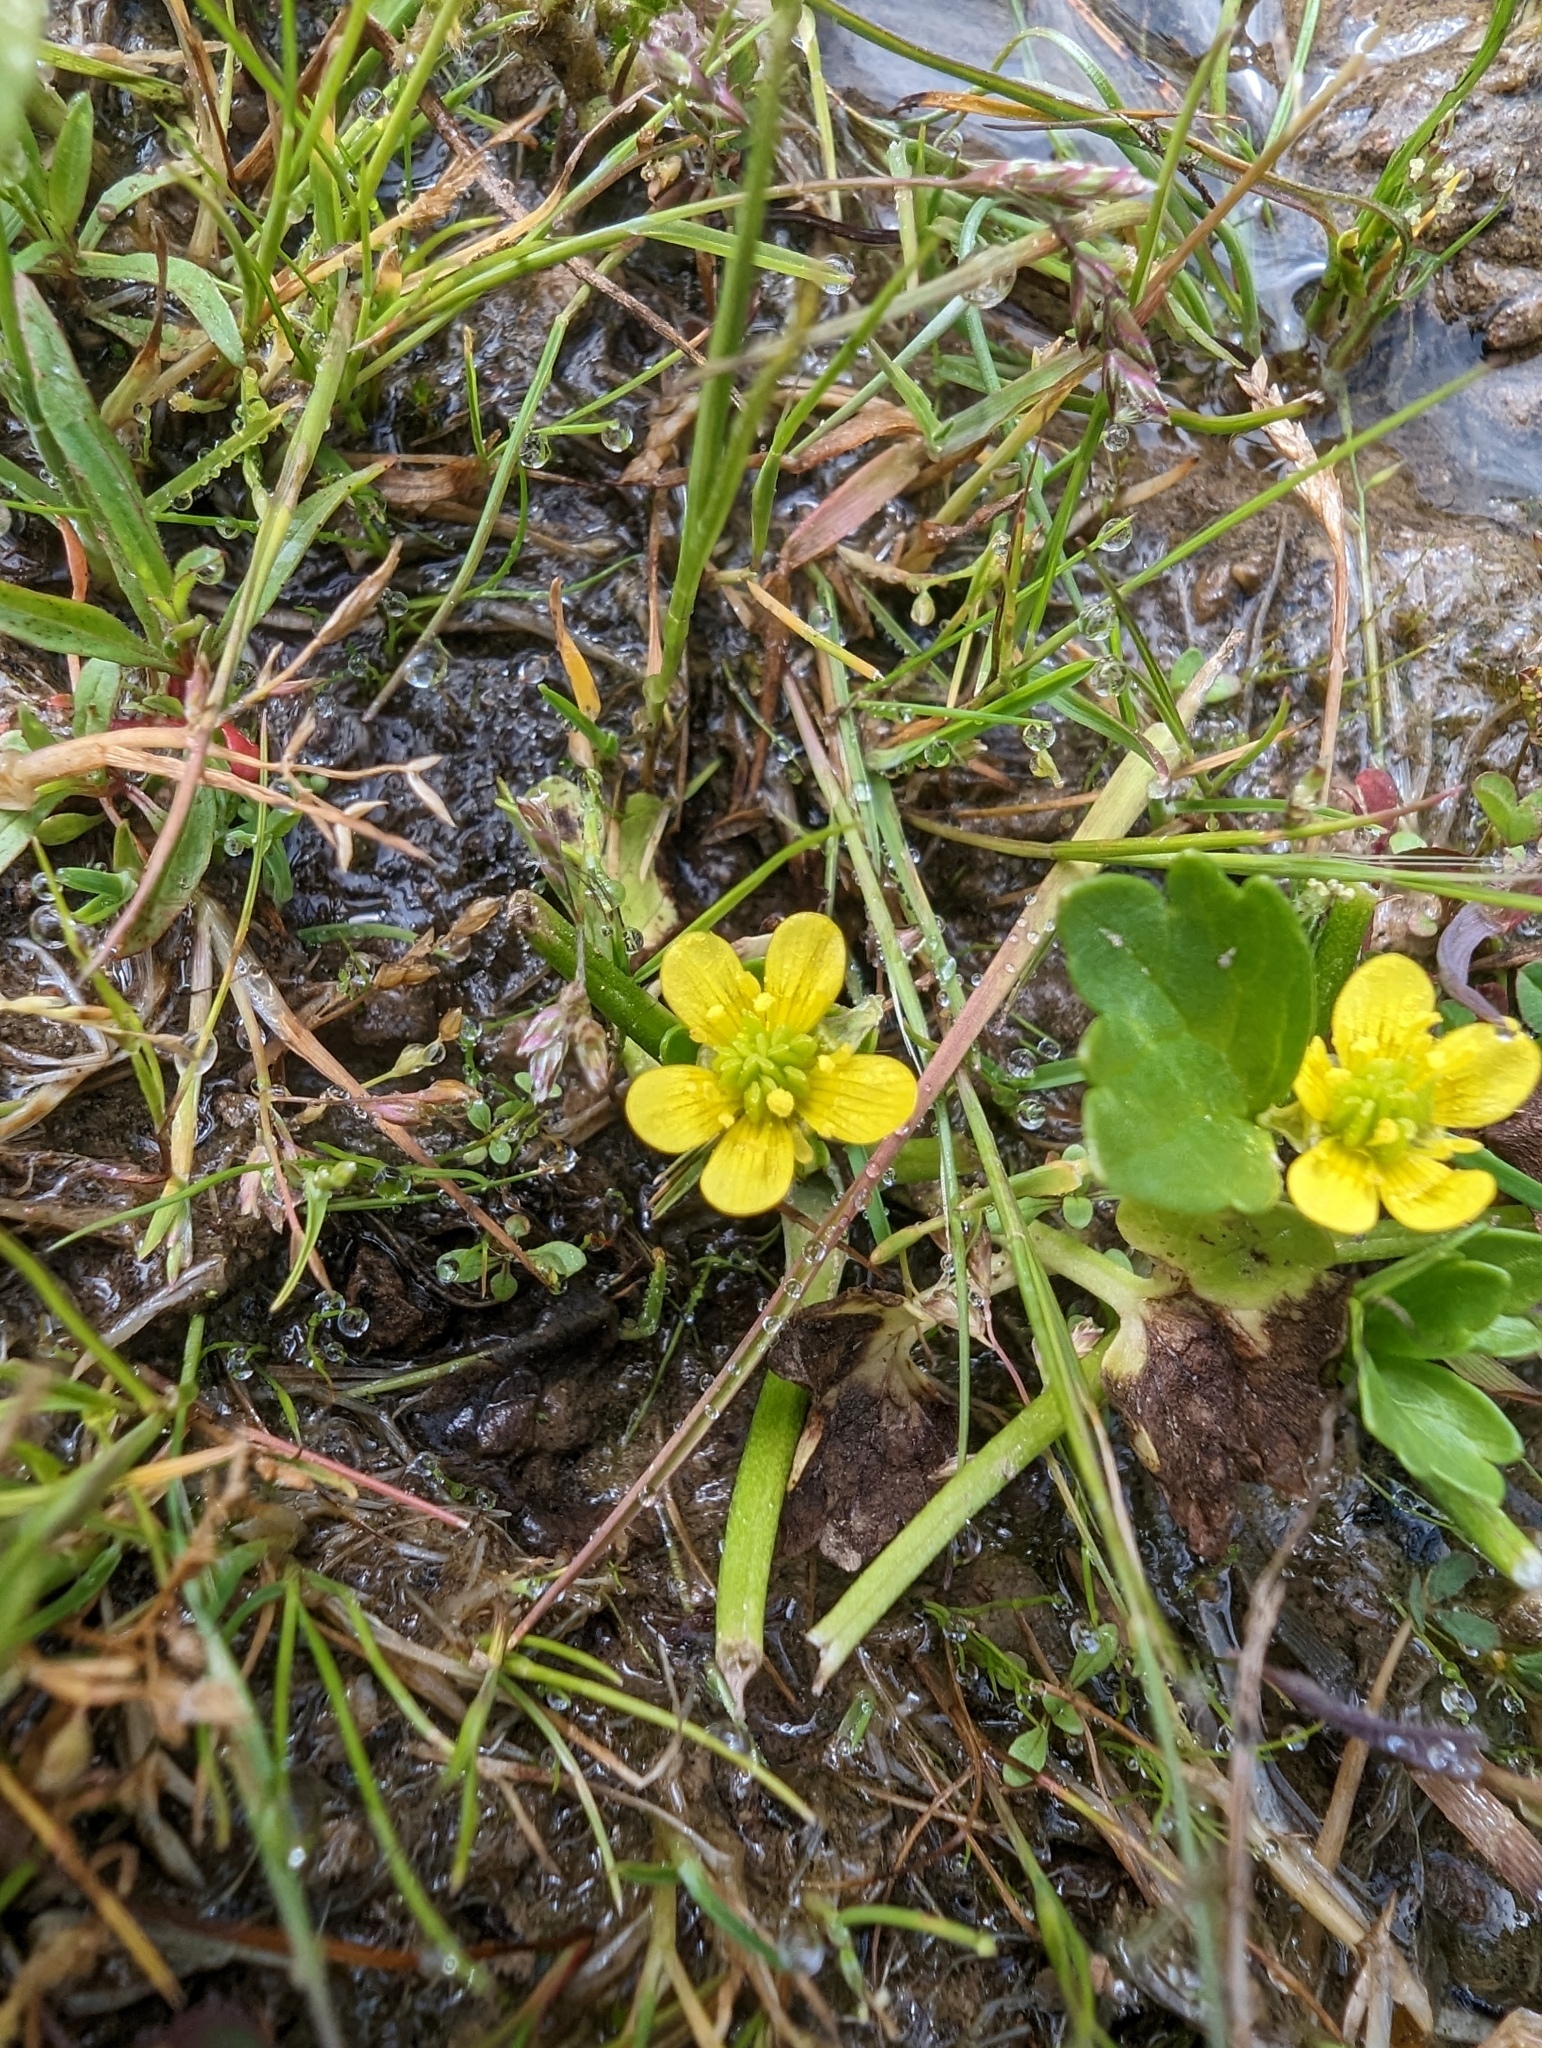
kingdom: Plantae
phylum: Tracheophyta
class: Magnoliopsida
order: Ranunculales
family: Ranunculaceae
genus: Ranunculus
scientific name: Ranunculus muricatus
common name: Rough-fruited buttercup
